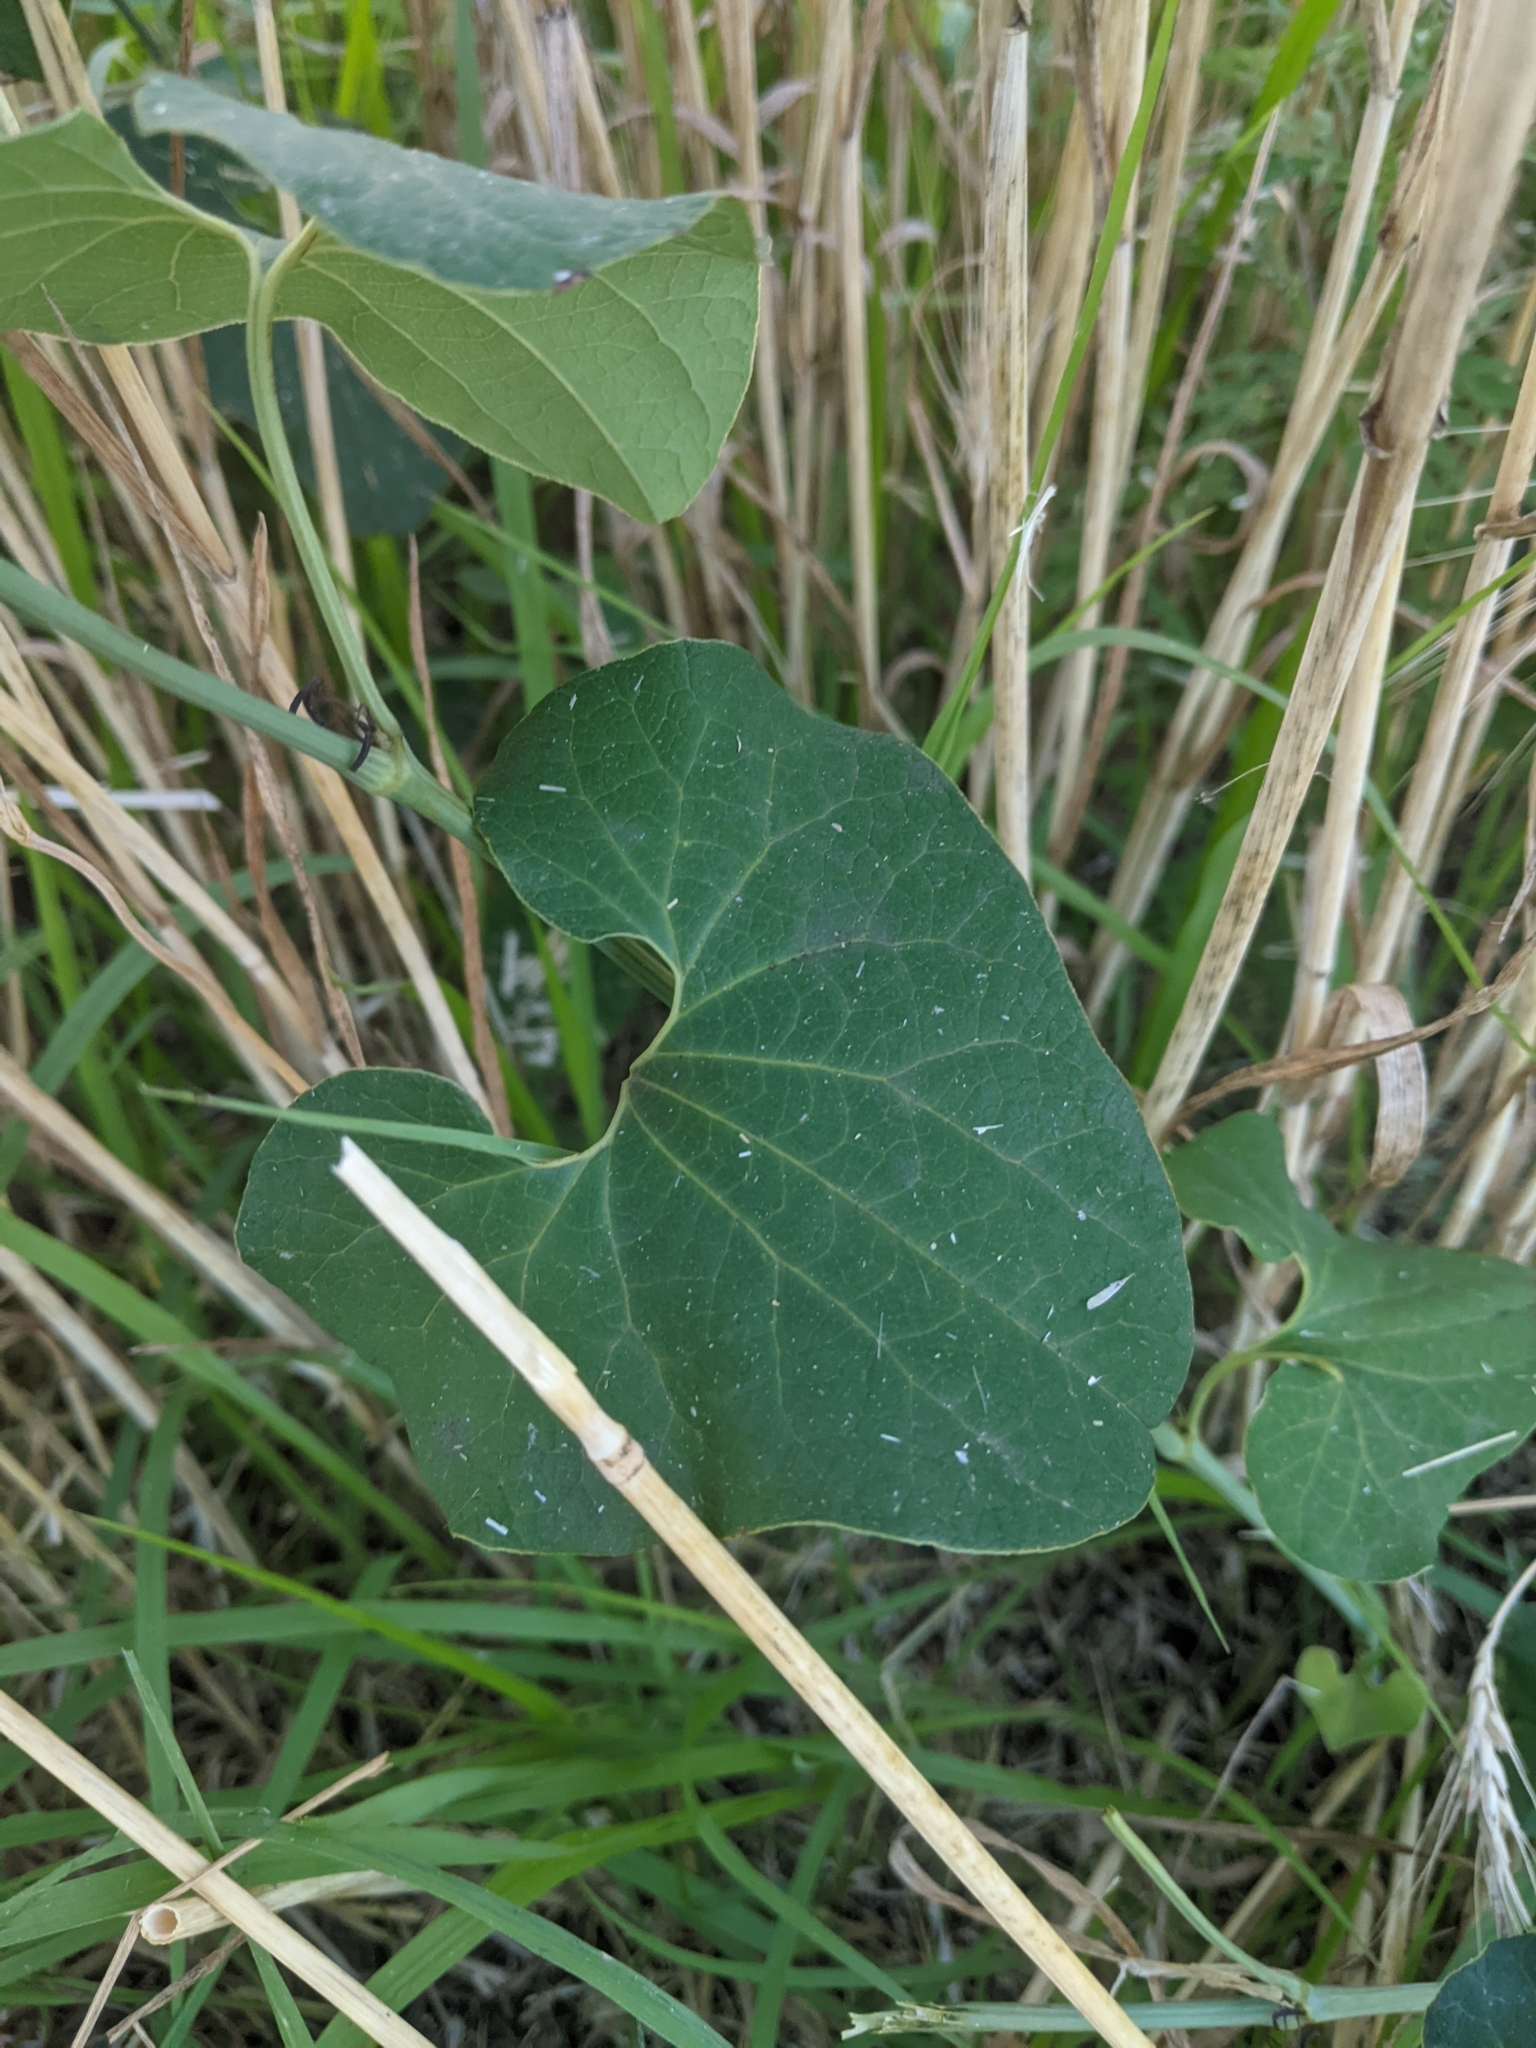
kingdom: Plantae
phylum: Tracheophyta
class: Magnoliopsida
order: Piperales
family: Aristolochiaceae
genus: Aristolochia
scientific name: Aristolochia clematitis
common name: Birthwort
